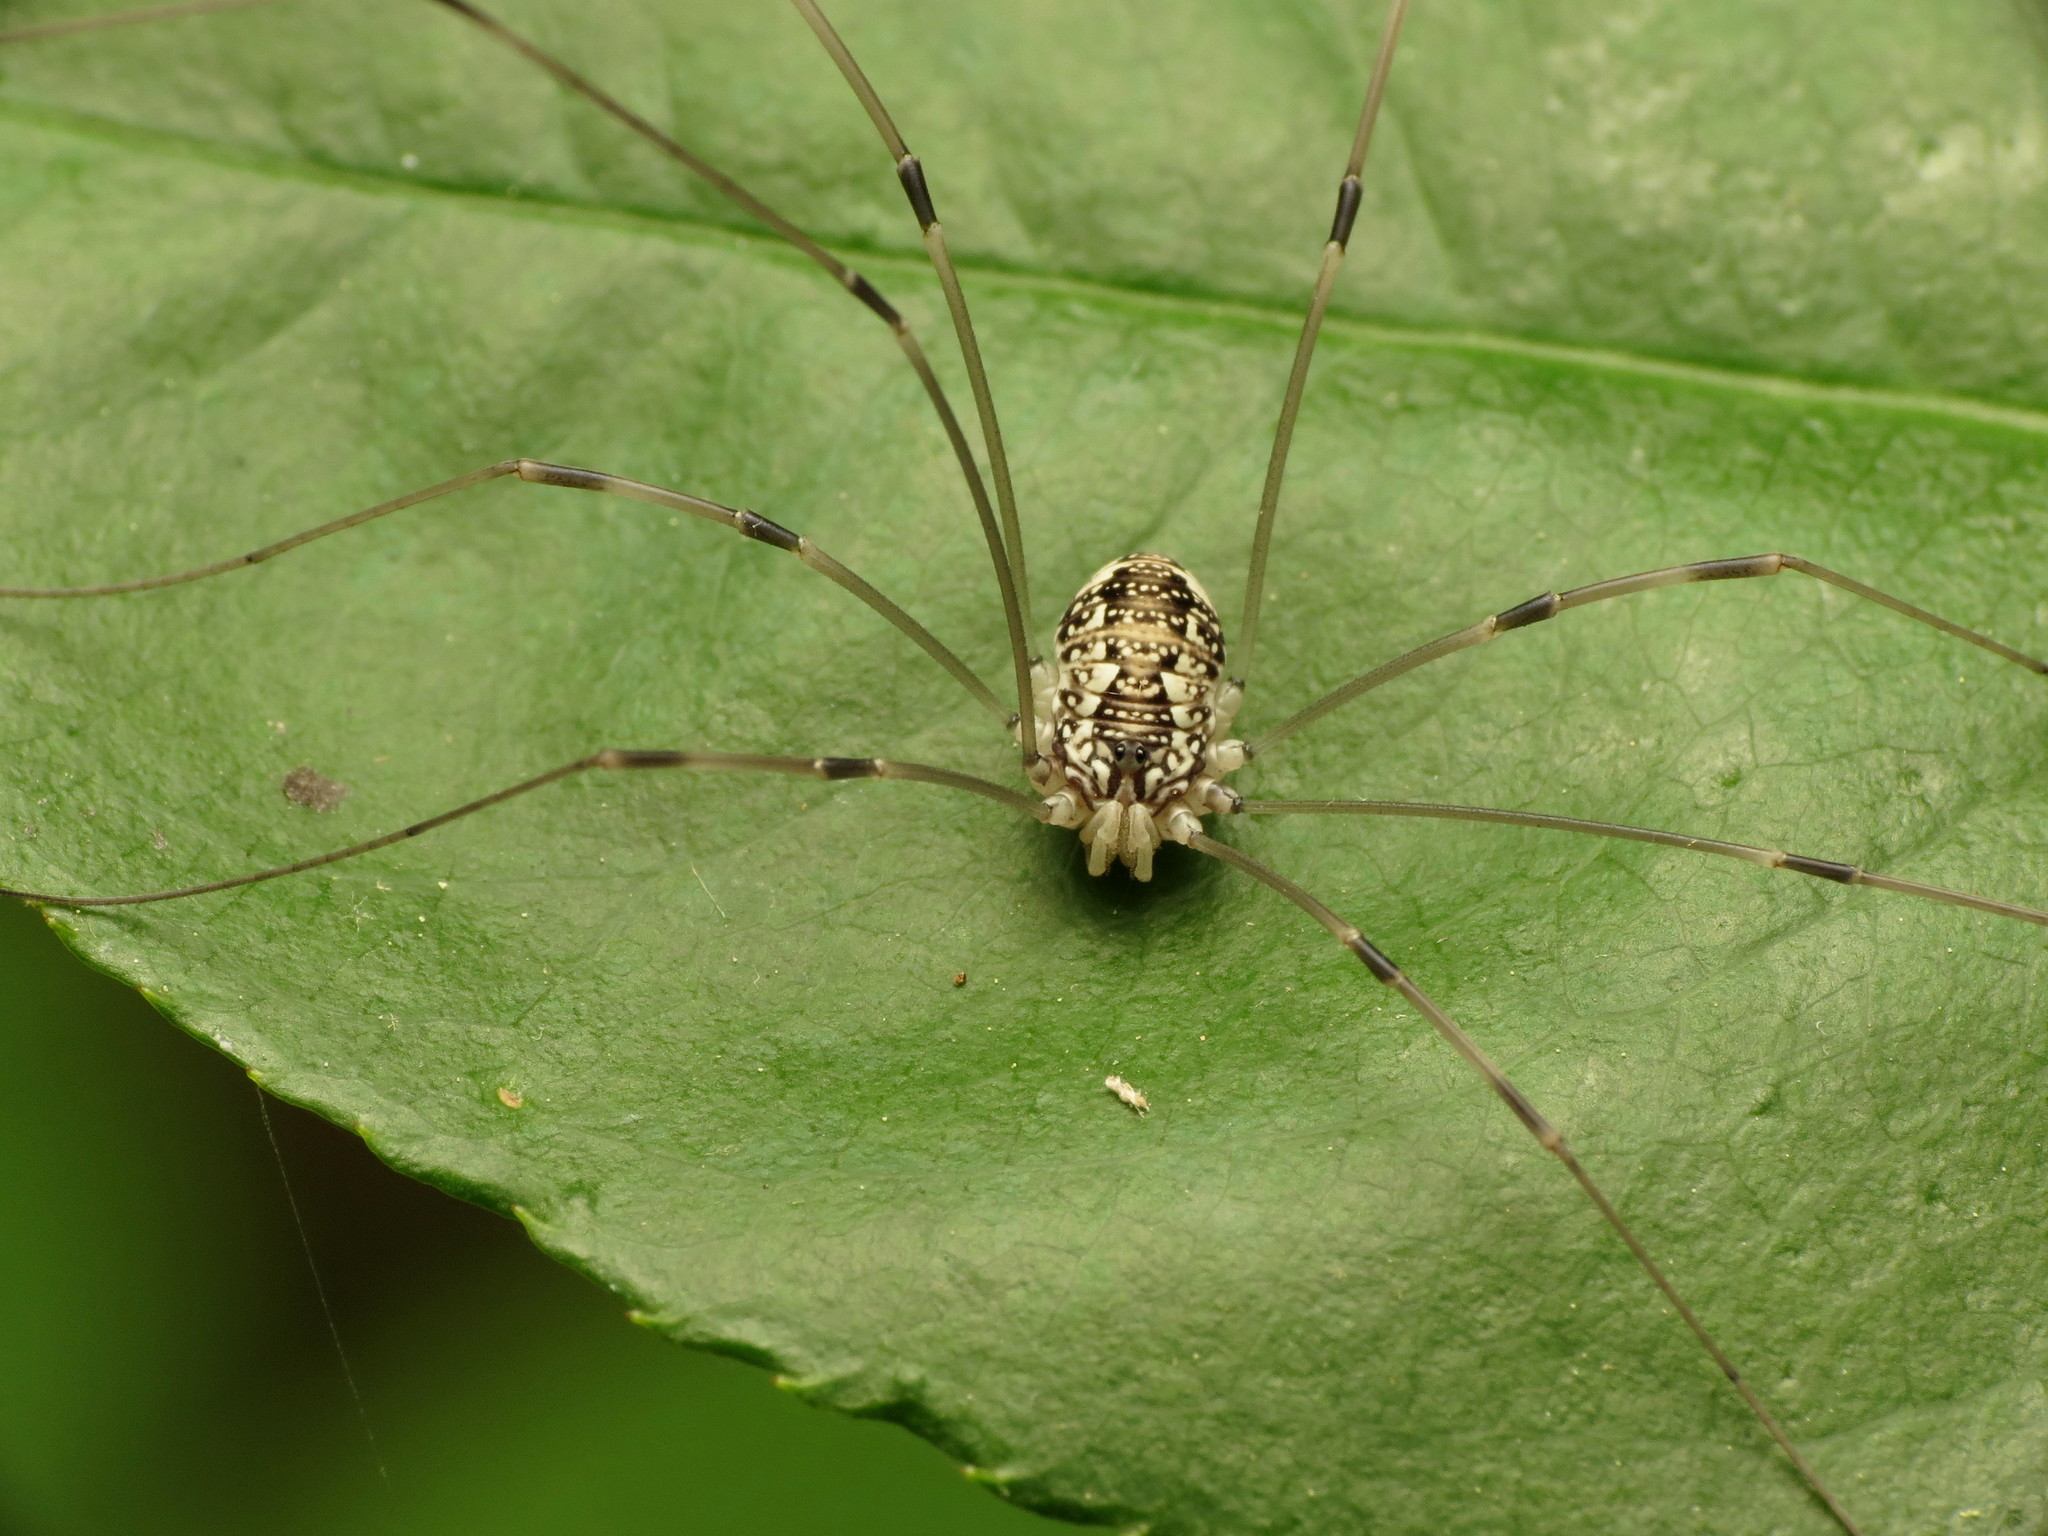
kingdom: Animalia
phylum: Arthropoda
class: Arachnida
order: Opiliones
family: Sclerosomatidae
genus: Leiobunum
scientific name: Leiobunum vittatum
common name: Eastern harvestman
